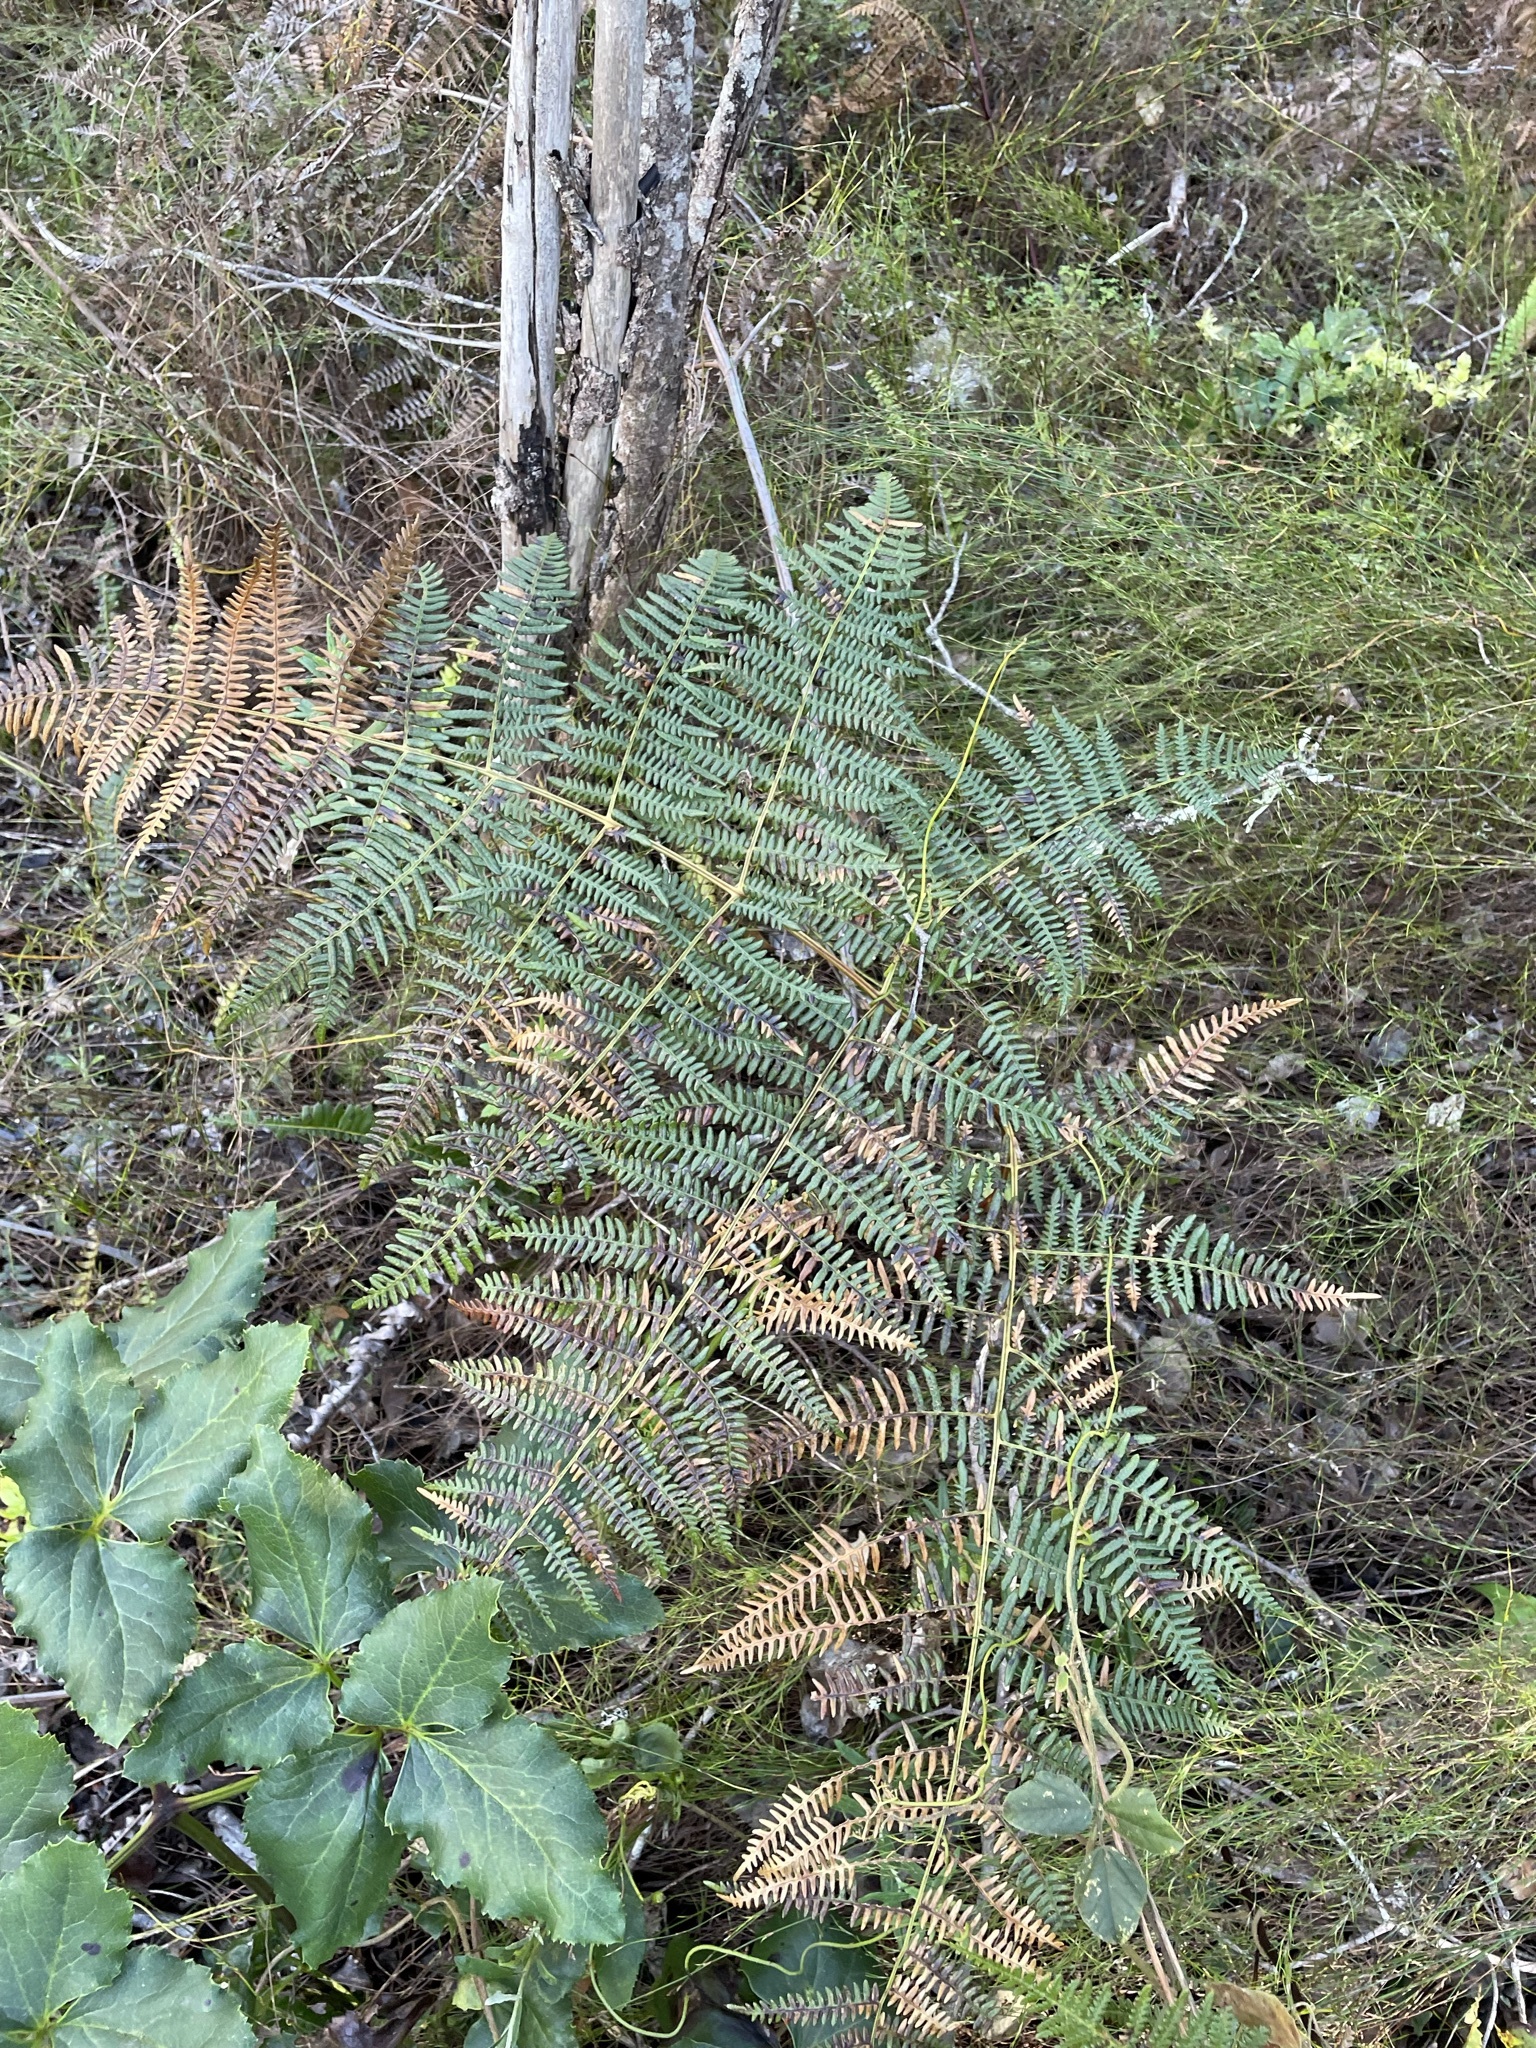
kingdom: Plantae
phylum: Tracheophyta
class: Polypodiopsida
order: Polypodiales
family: Dennstaedtiaceae
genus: Pteridium
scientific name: Pteridium aquilinum
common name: Bracken
